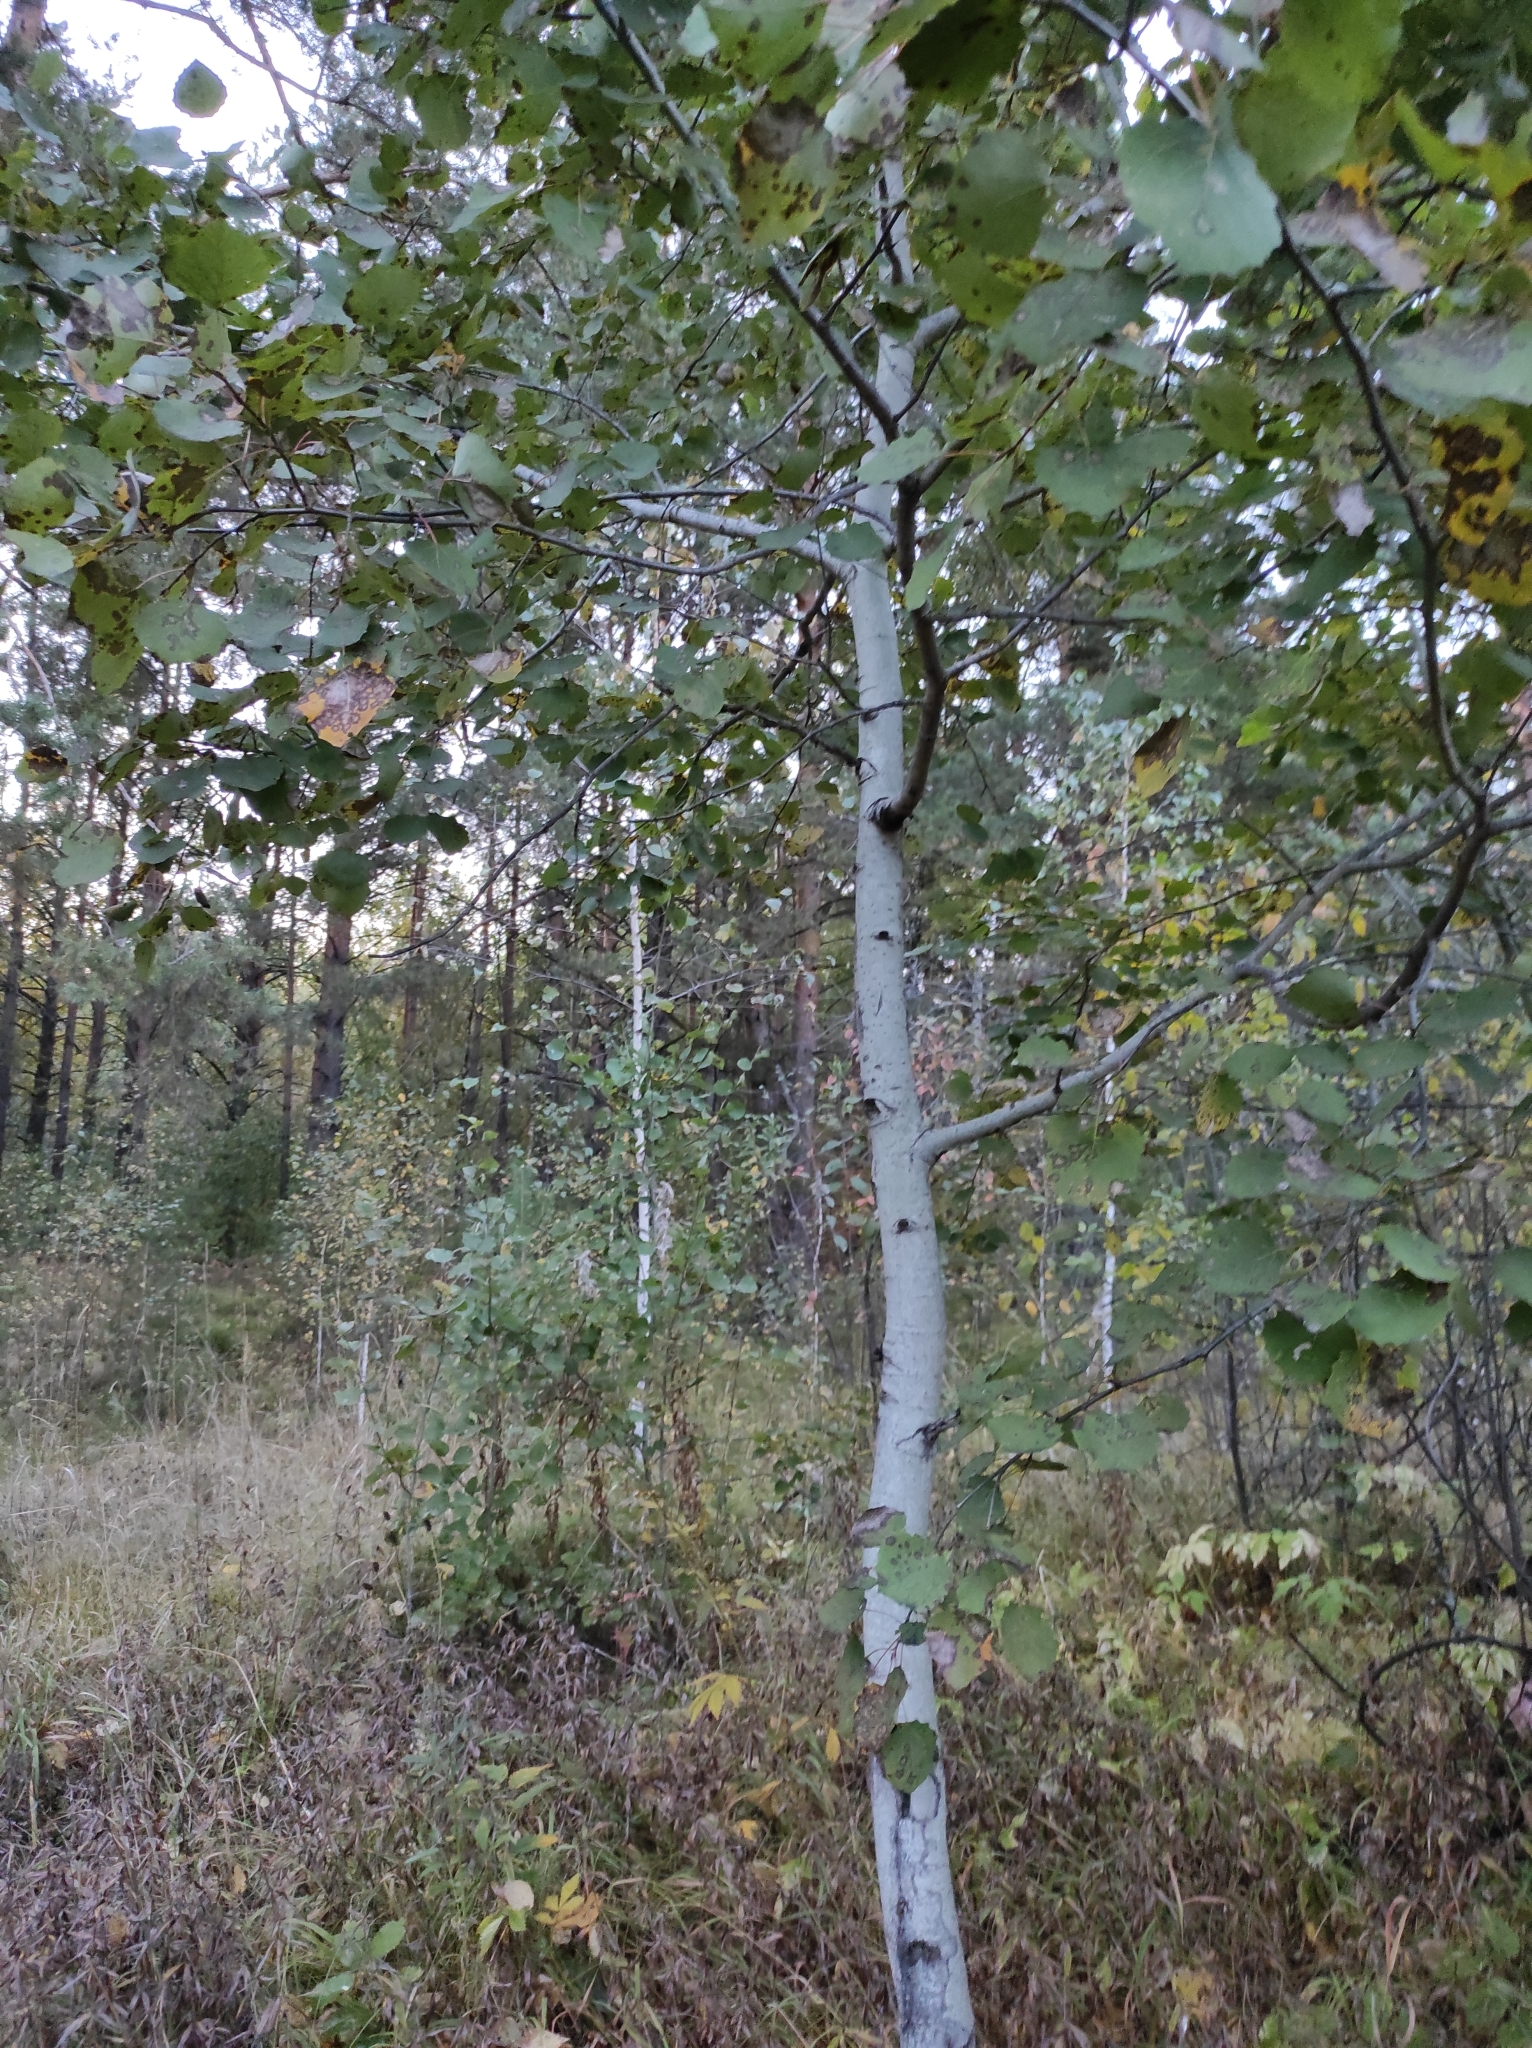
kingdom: Plantae
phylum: Tracheophyta
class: Magnoliopsida
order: Fagales
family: Betulaceae
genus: Betula
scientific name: Betula pendula
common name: Silver birch
